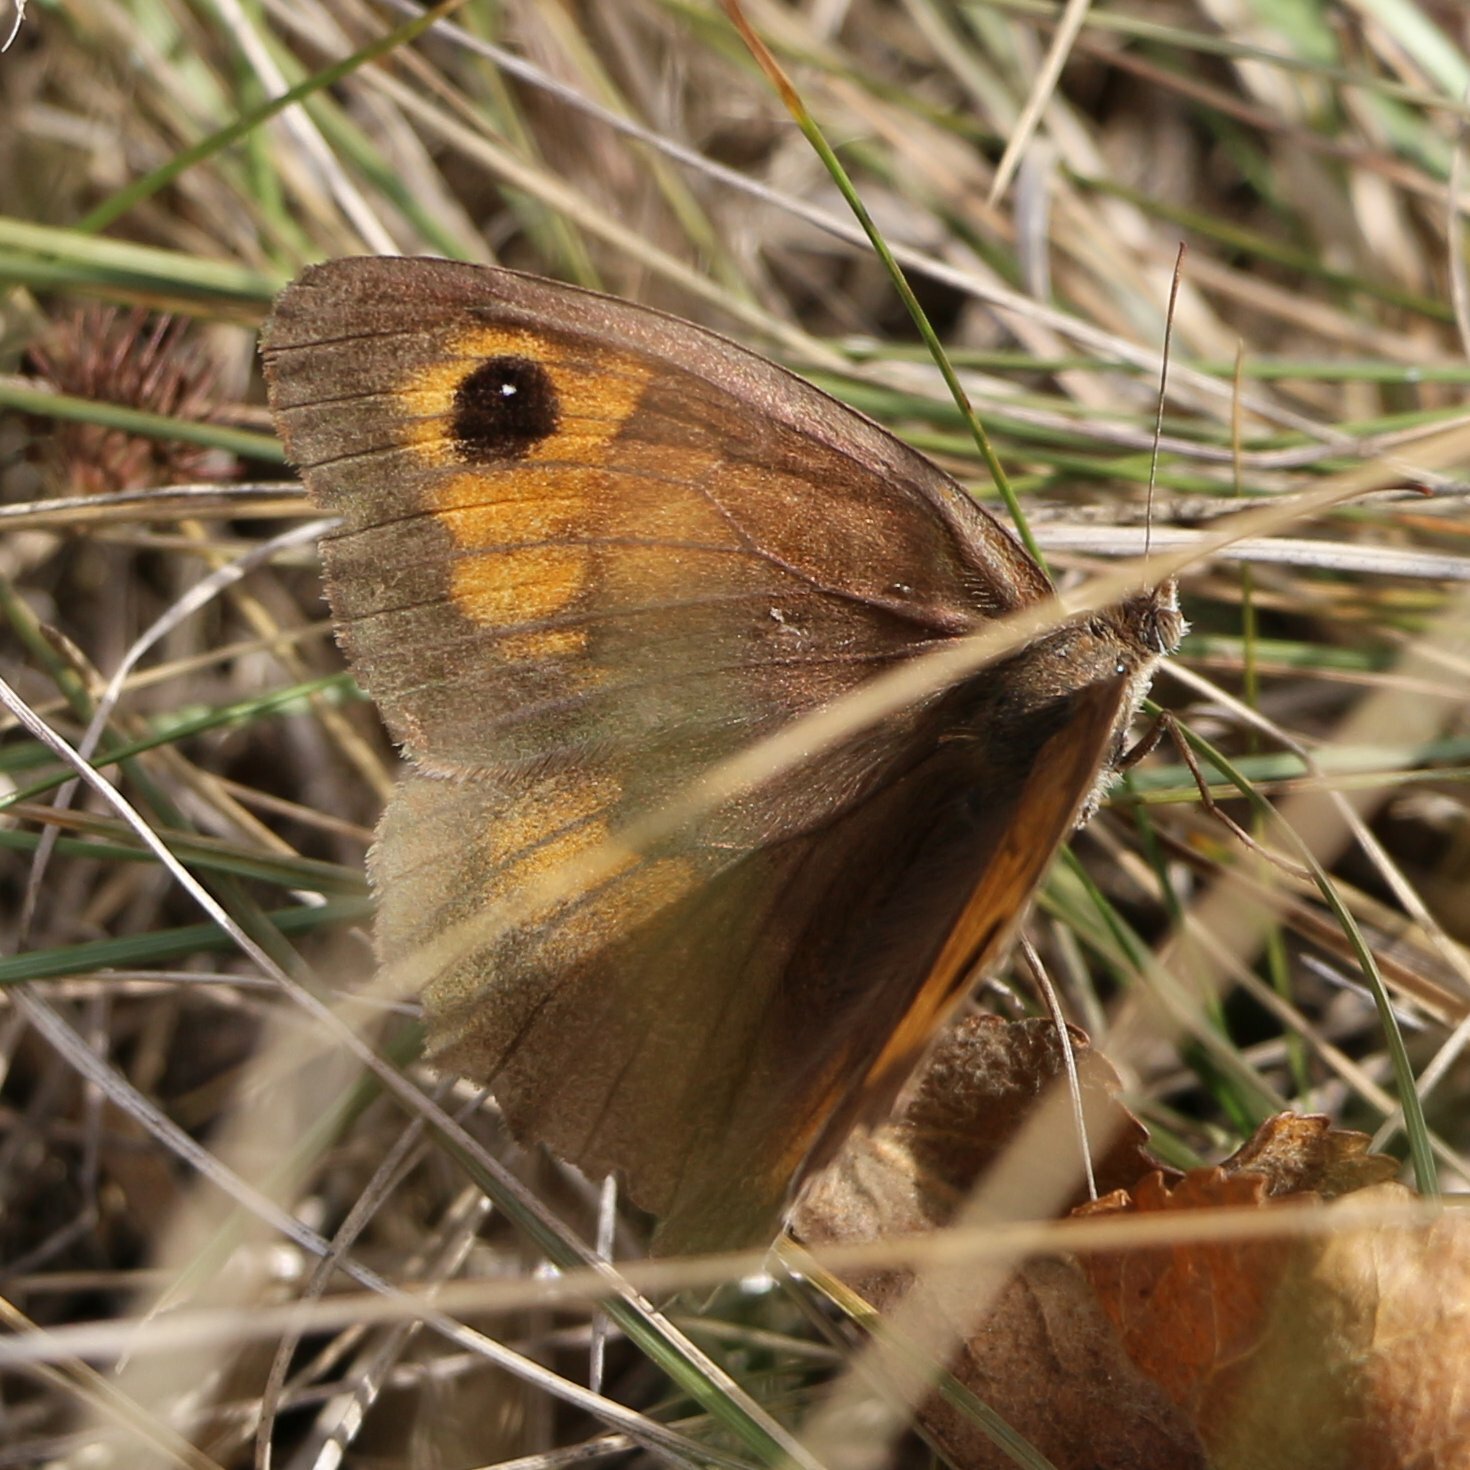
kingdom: Animalia
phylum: Arthropoda
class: Insecta
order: Lepidoptera
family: Nymphalidae
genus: Maniola
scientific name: Maniola jurtina
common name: Meadow brown
